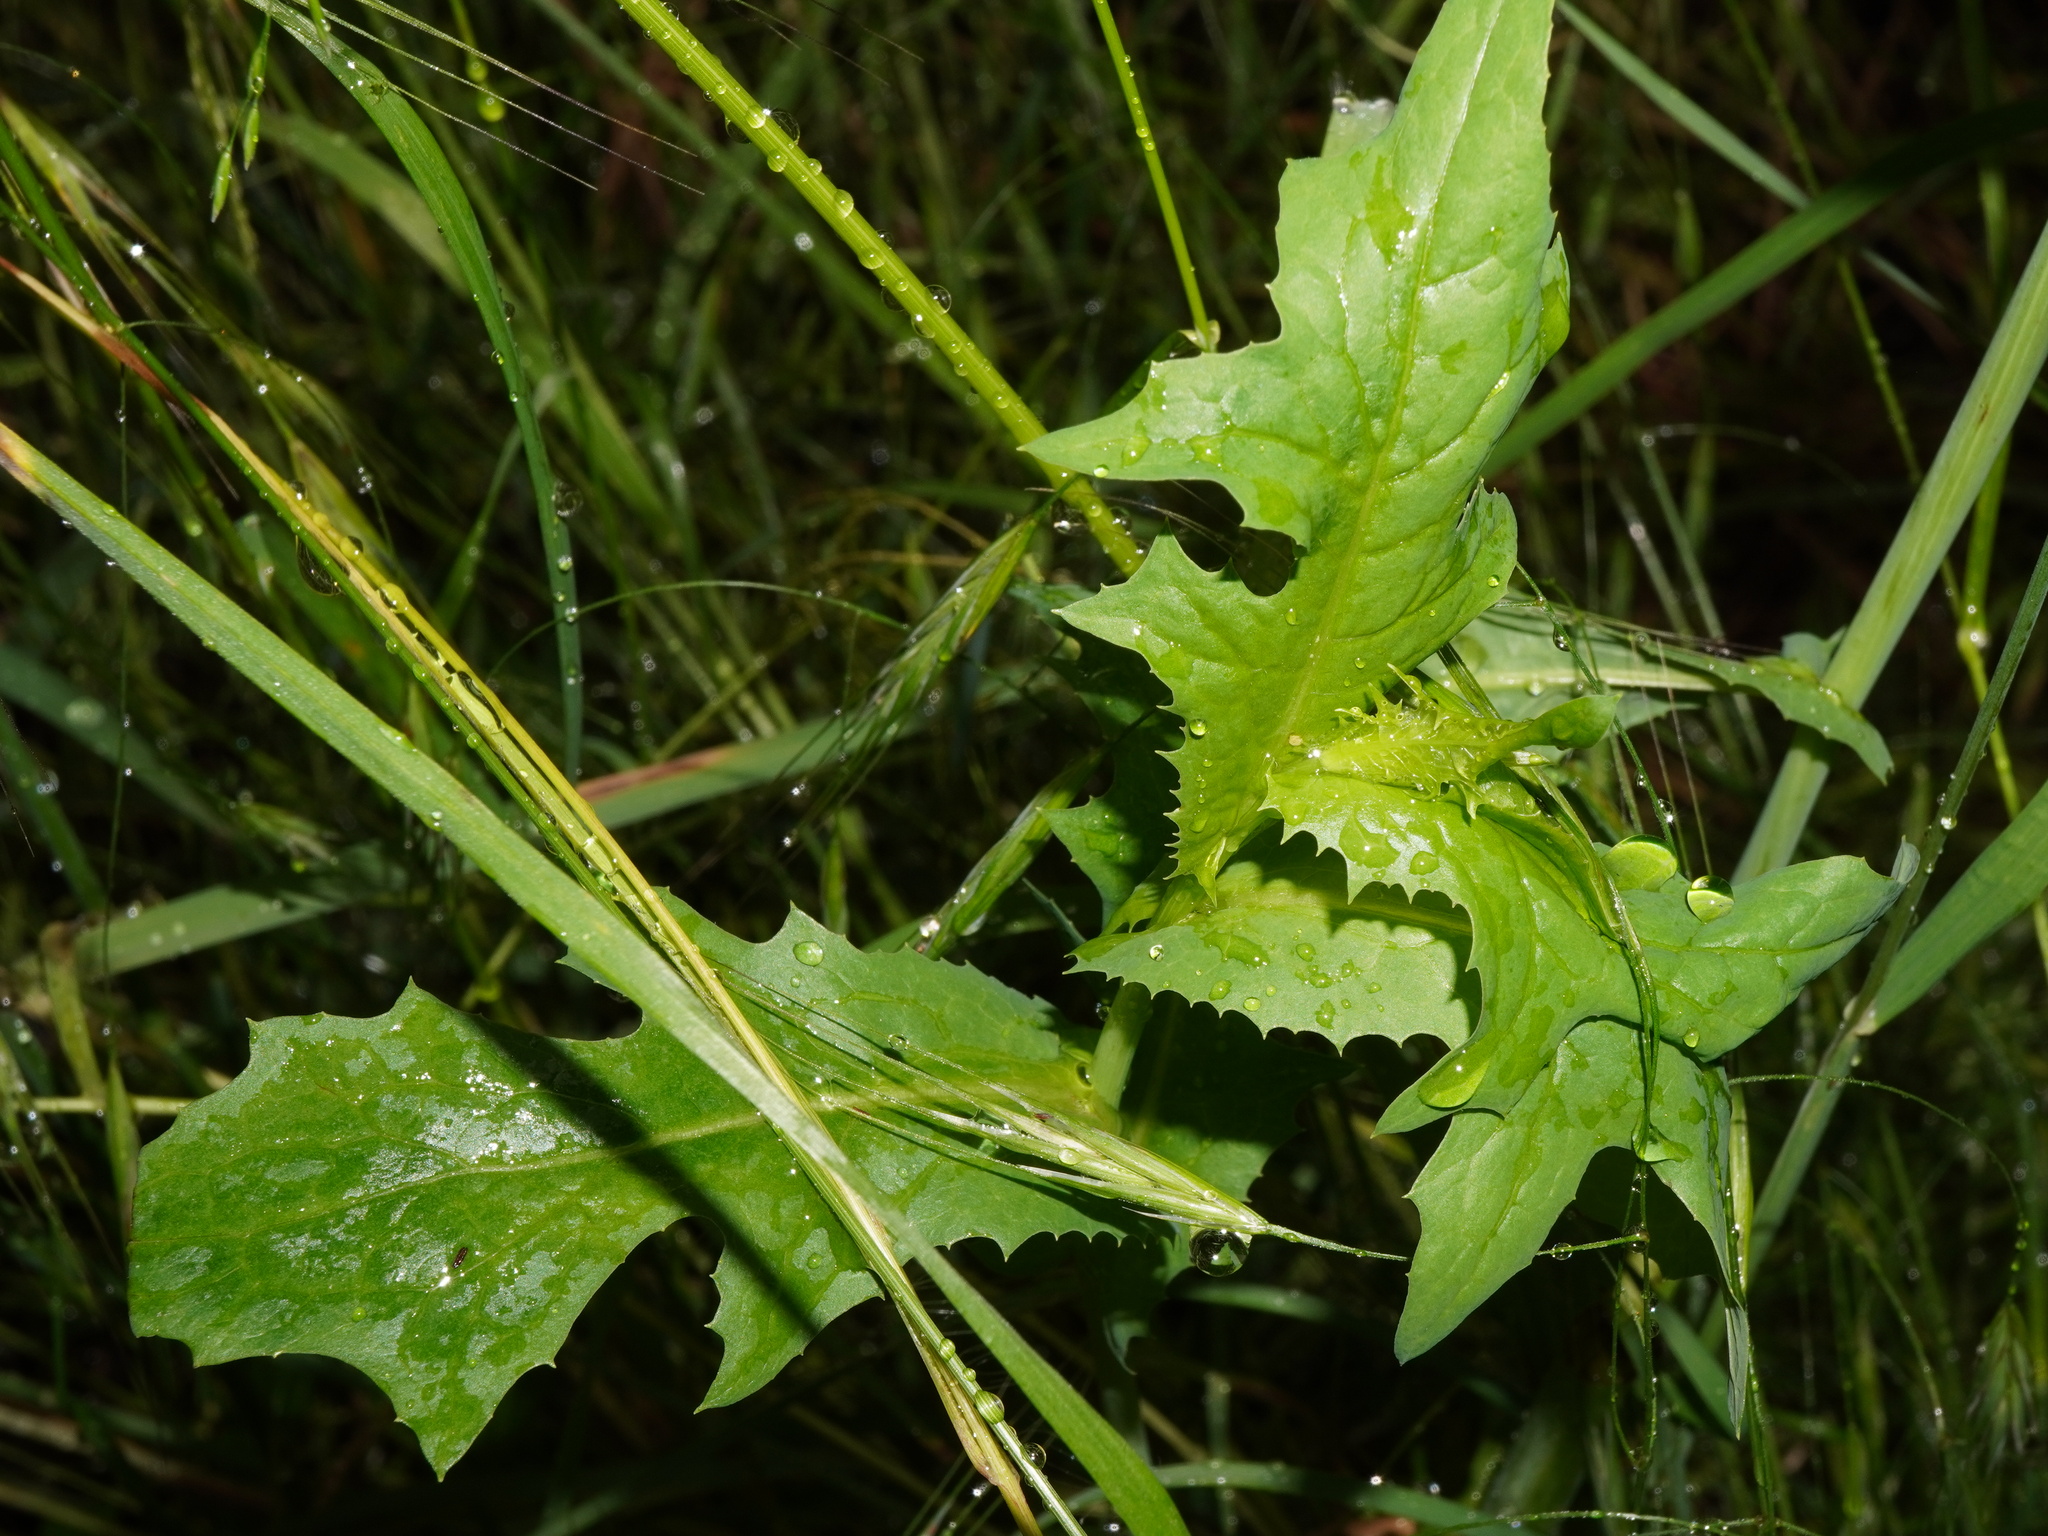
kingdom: Plantae
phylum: Tracheophyta
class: Magnoliopsida
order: Asterales
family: Asteraceae
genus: Lactuca
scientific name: Lactuca quercina
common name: Wild lettuce
